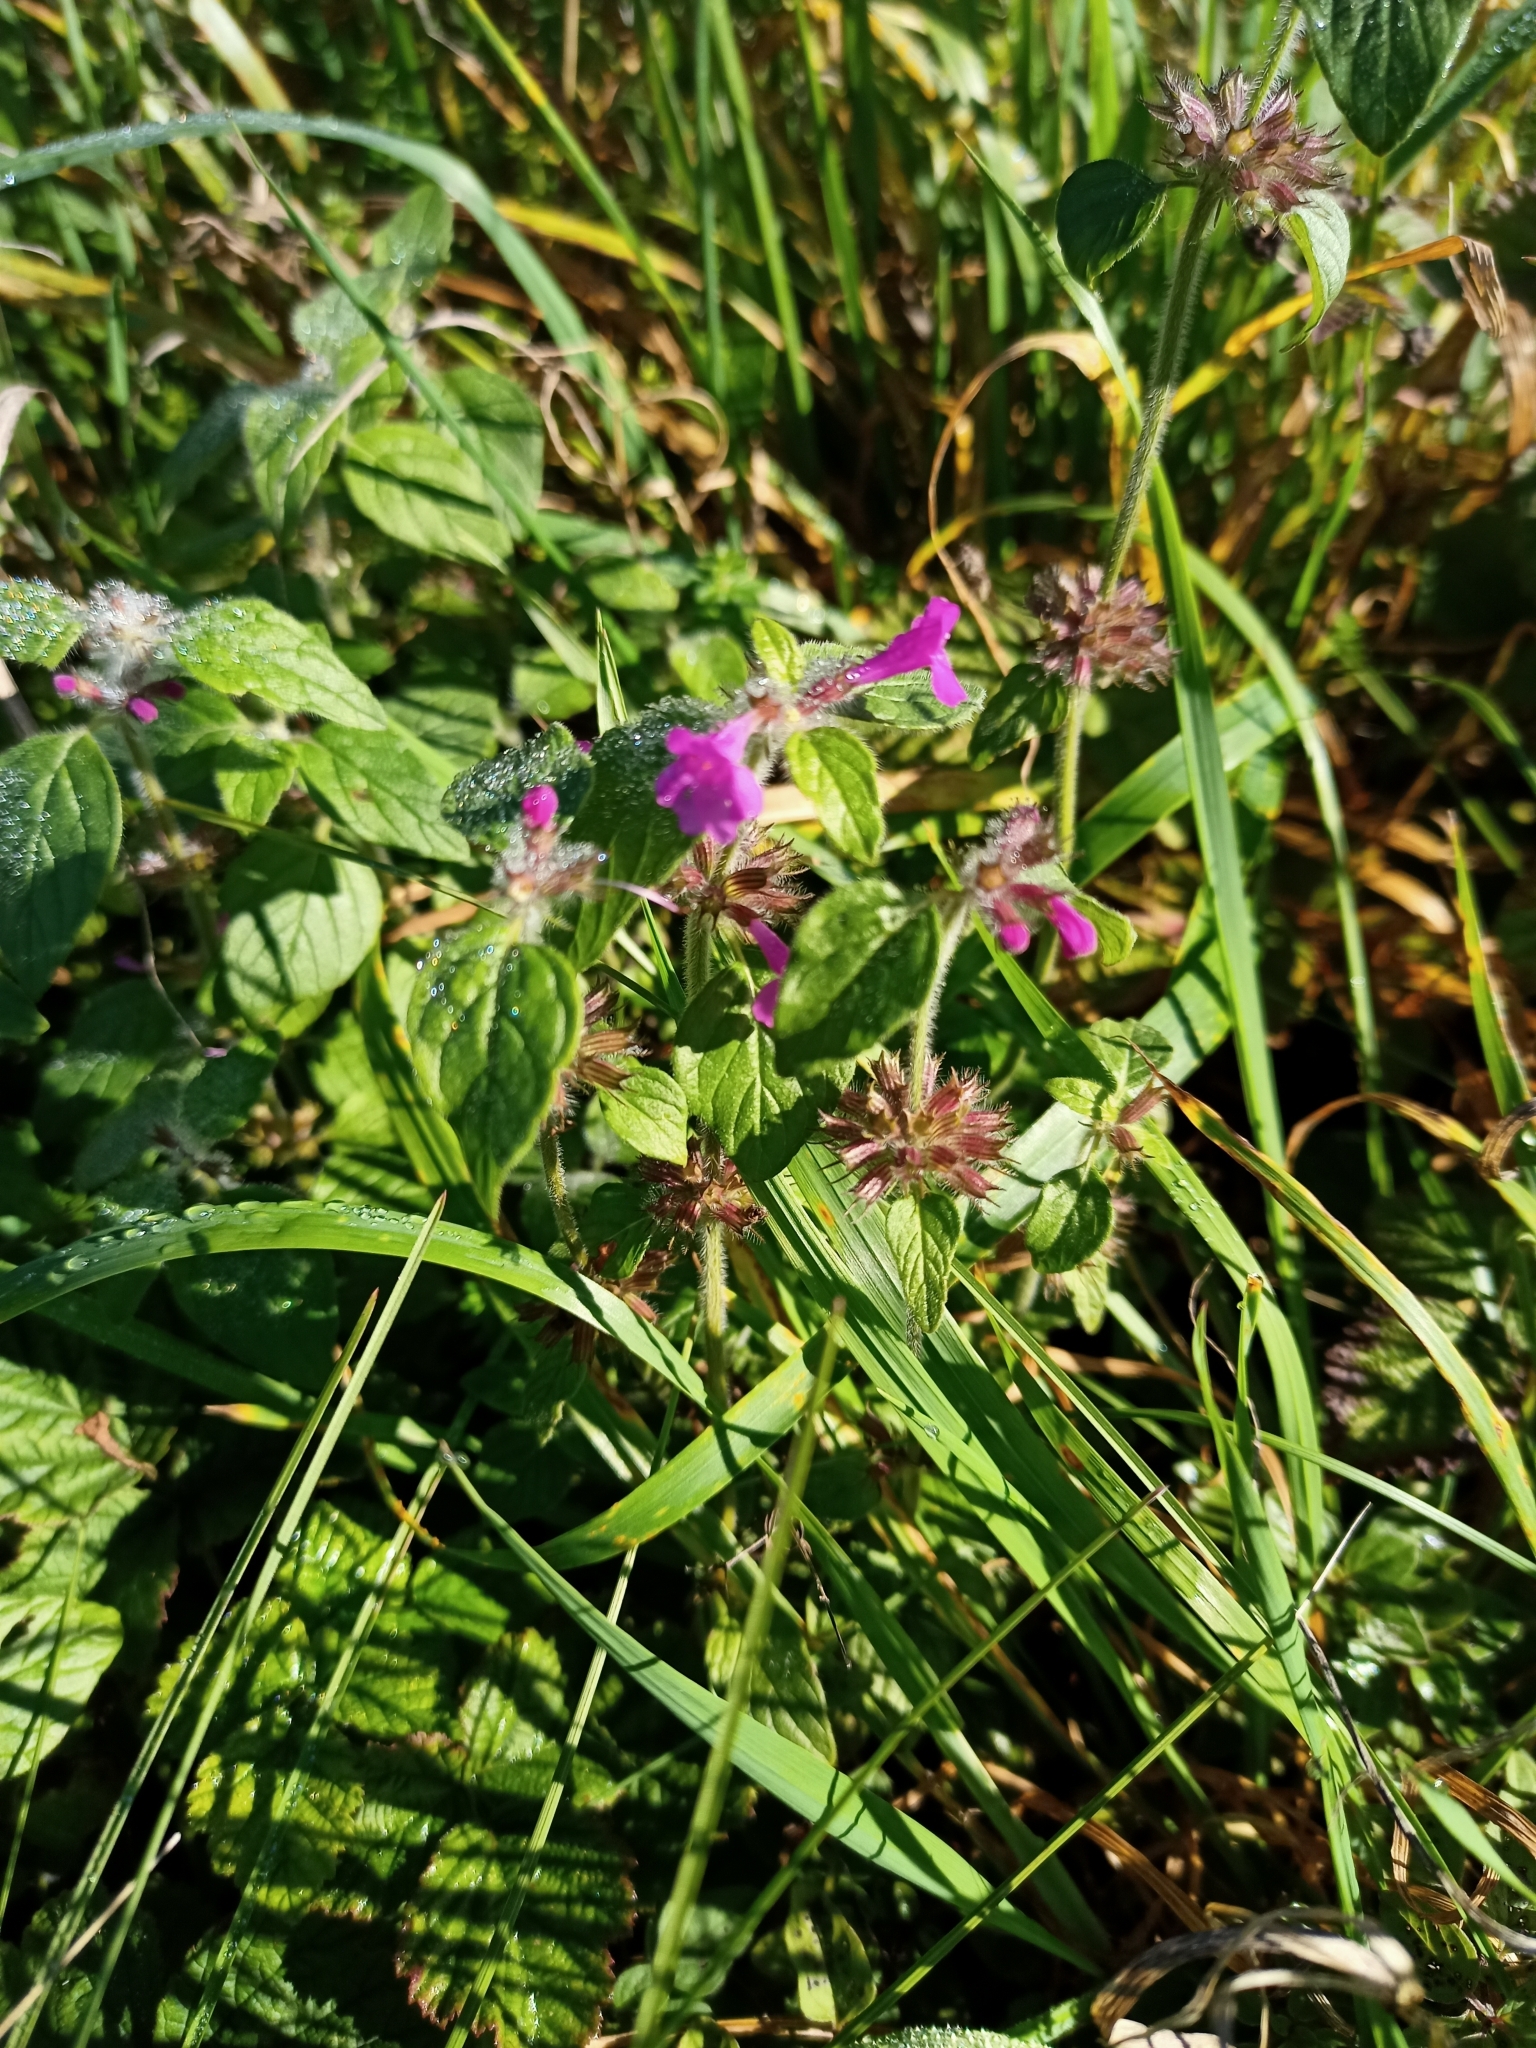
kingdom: Plantae
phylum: Tracheophyta
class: Magnoliopsida
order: Lamiales
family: Lamiaceae
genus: Clinopodium
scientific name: Clinopodium vulgare
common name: Wild basil
